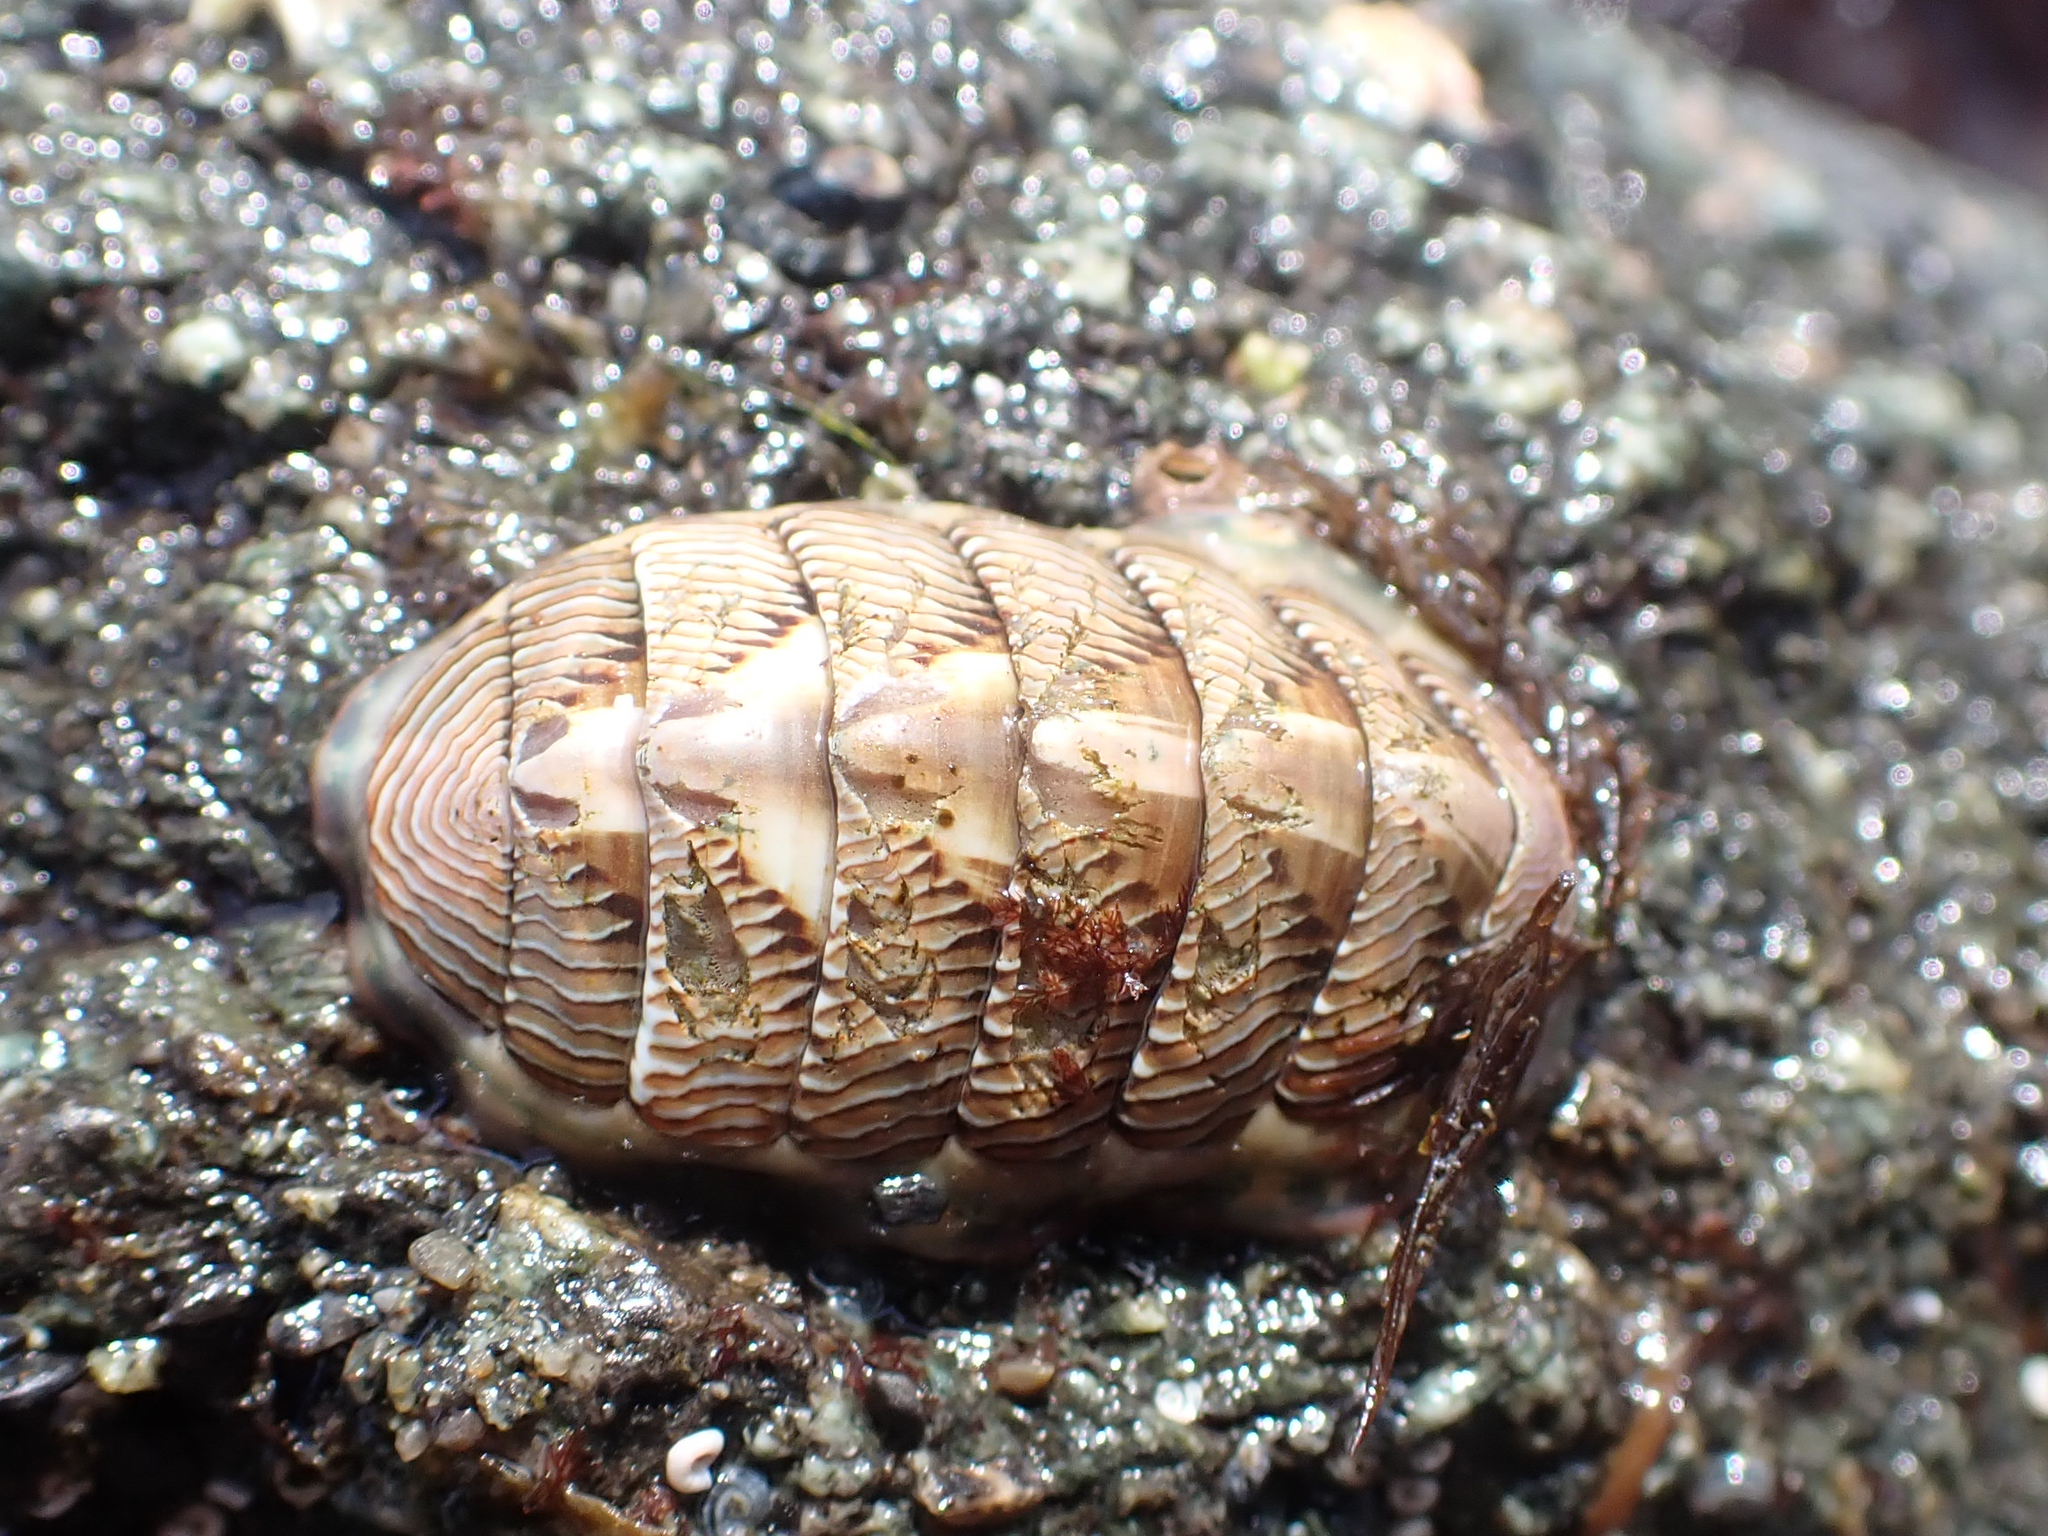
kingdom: Animalia
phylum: Mollusca
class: Polyplacophora
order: Chitonida
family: Tonicellidae
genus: Tonicella
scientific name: Tonicella lineata
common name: Lined chiton
